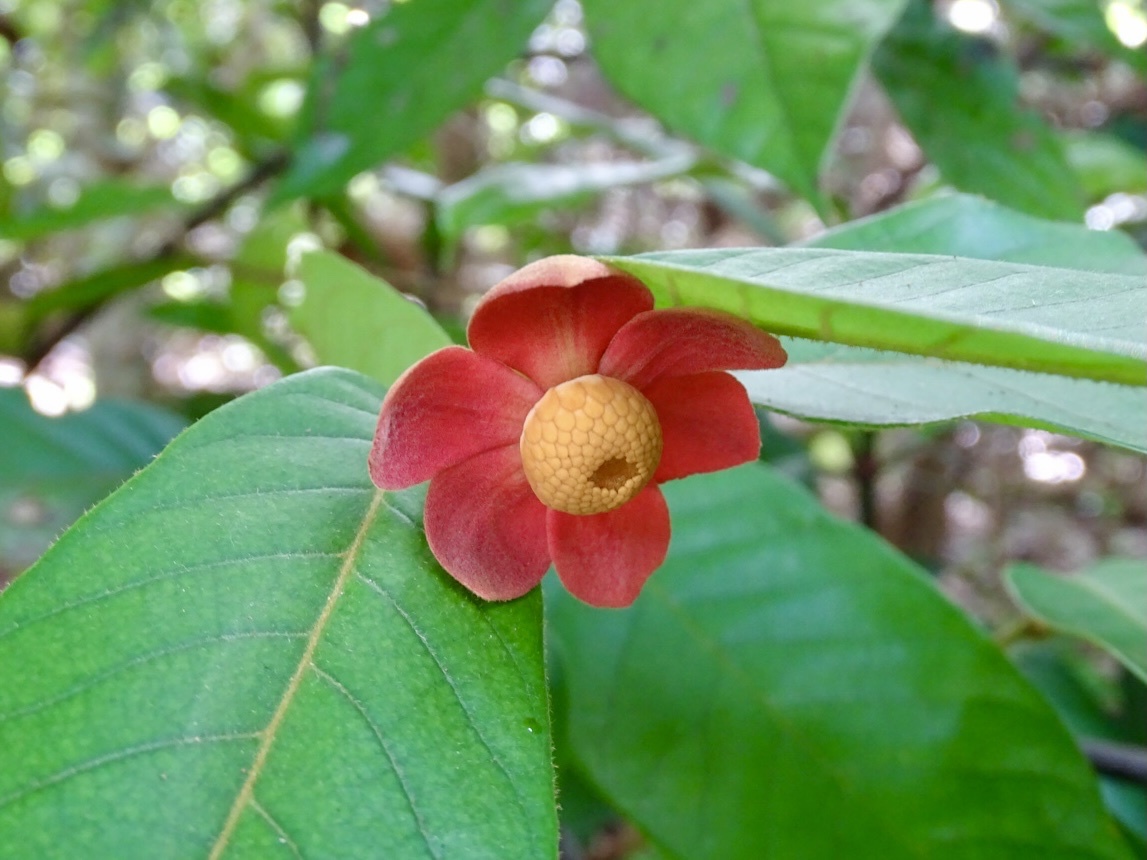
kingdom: Plantae
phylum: Tracheophyta
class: Magnoliopsida
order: Magnoliales
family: Annonaceae
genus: Uvaria
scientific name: Uvaria littoralis
